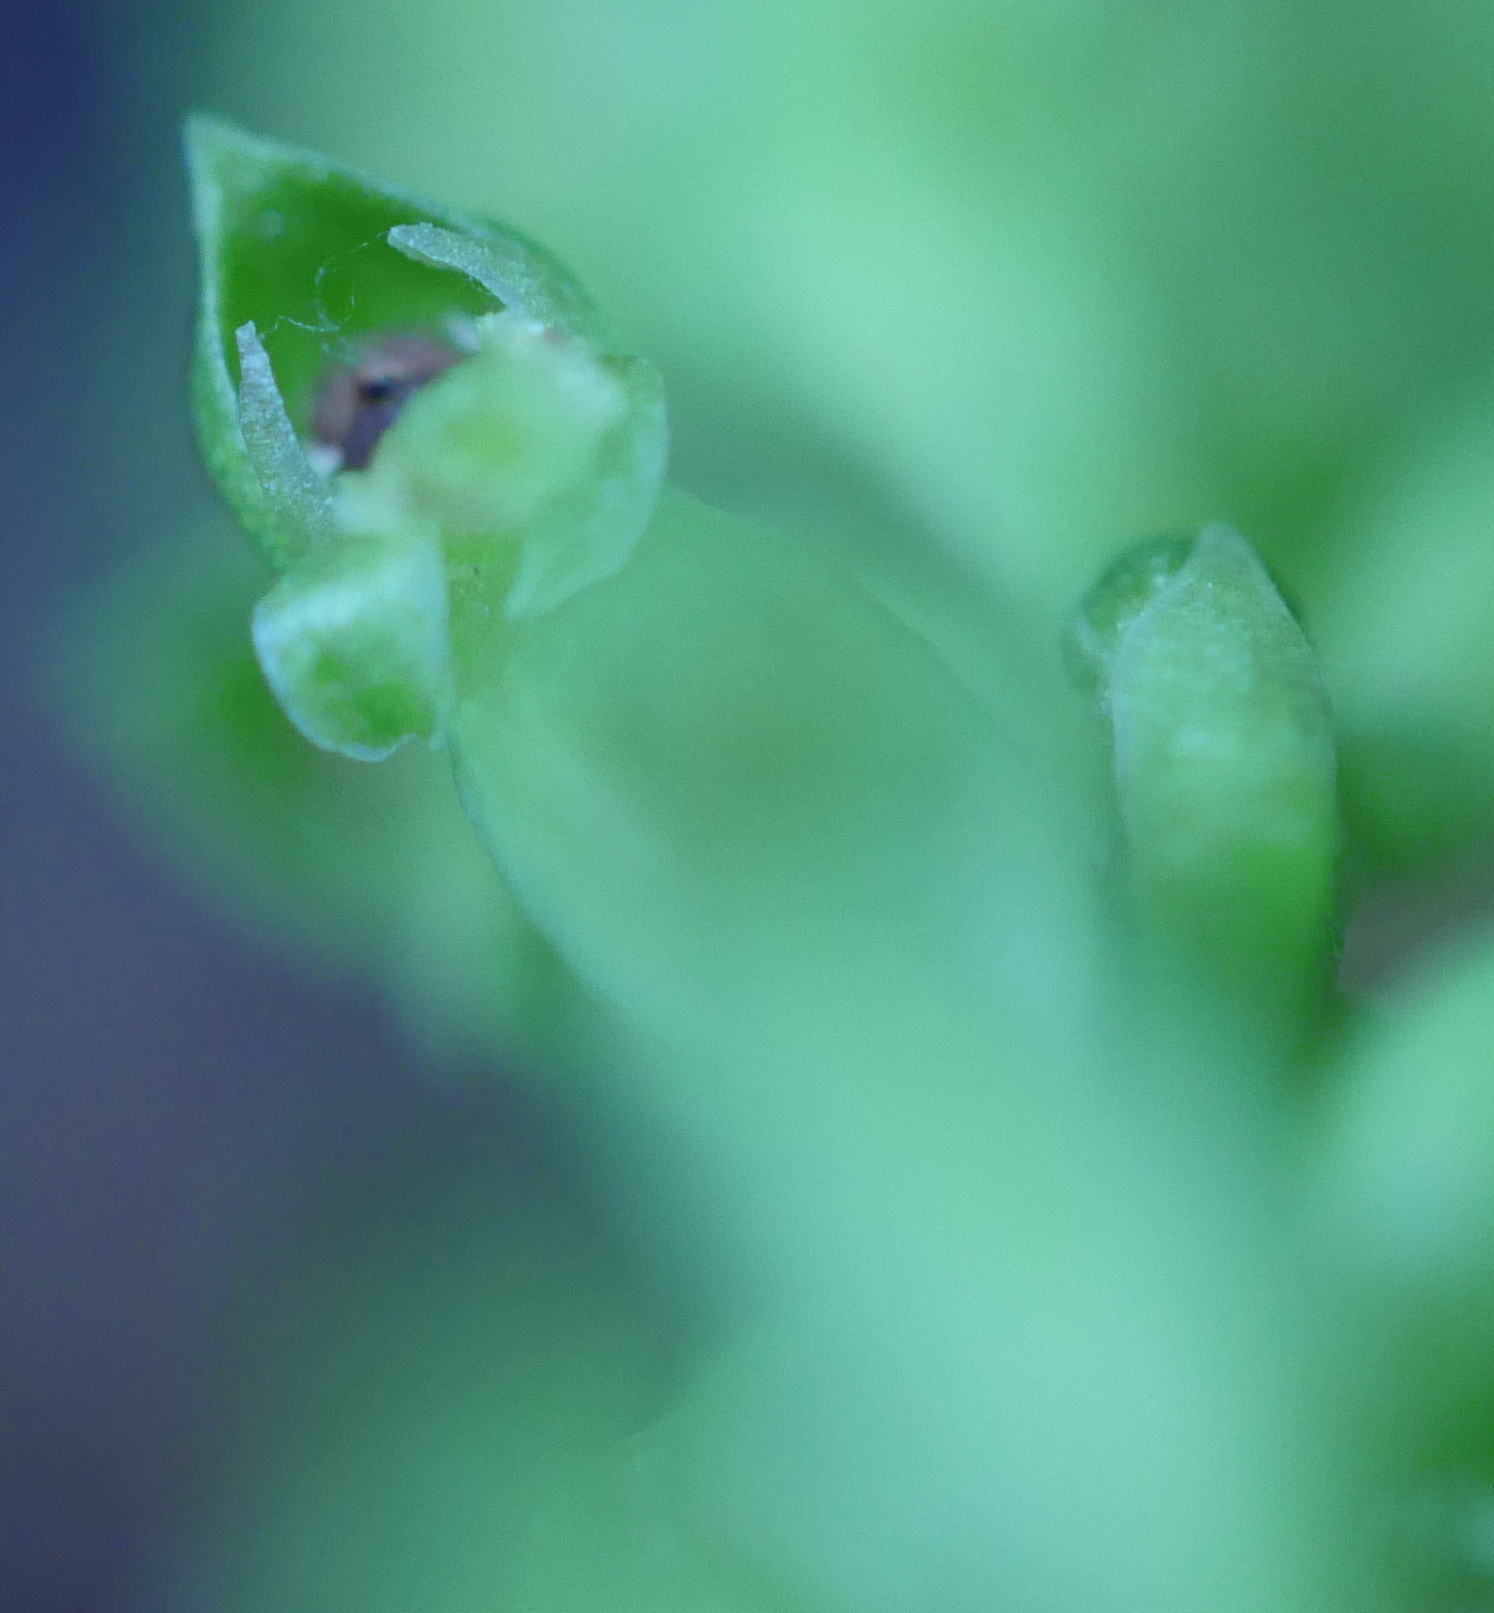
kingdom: Plantae
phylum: Tracheophyta
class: Liliopsida
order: Asparagales
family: Orchidaceae
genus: Microtis
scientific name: Microtis unifolia
